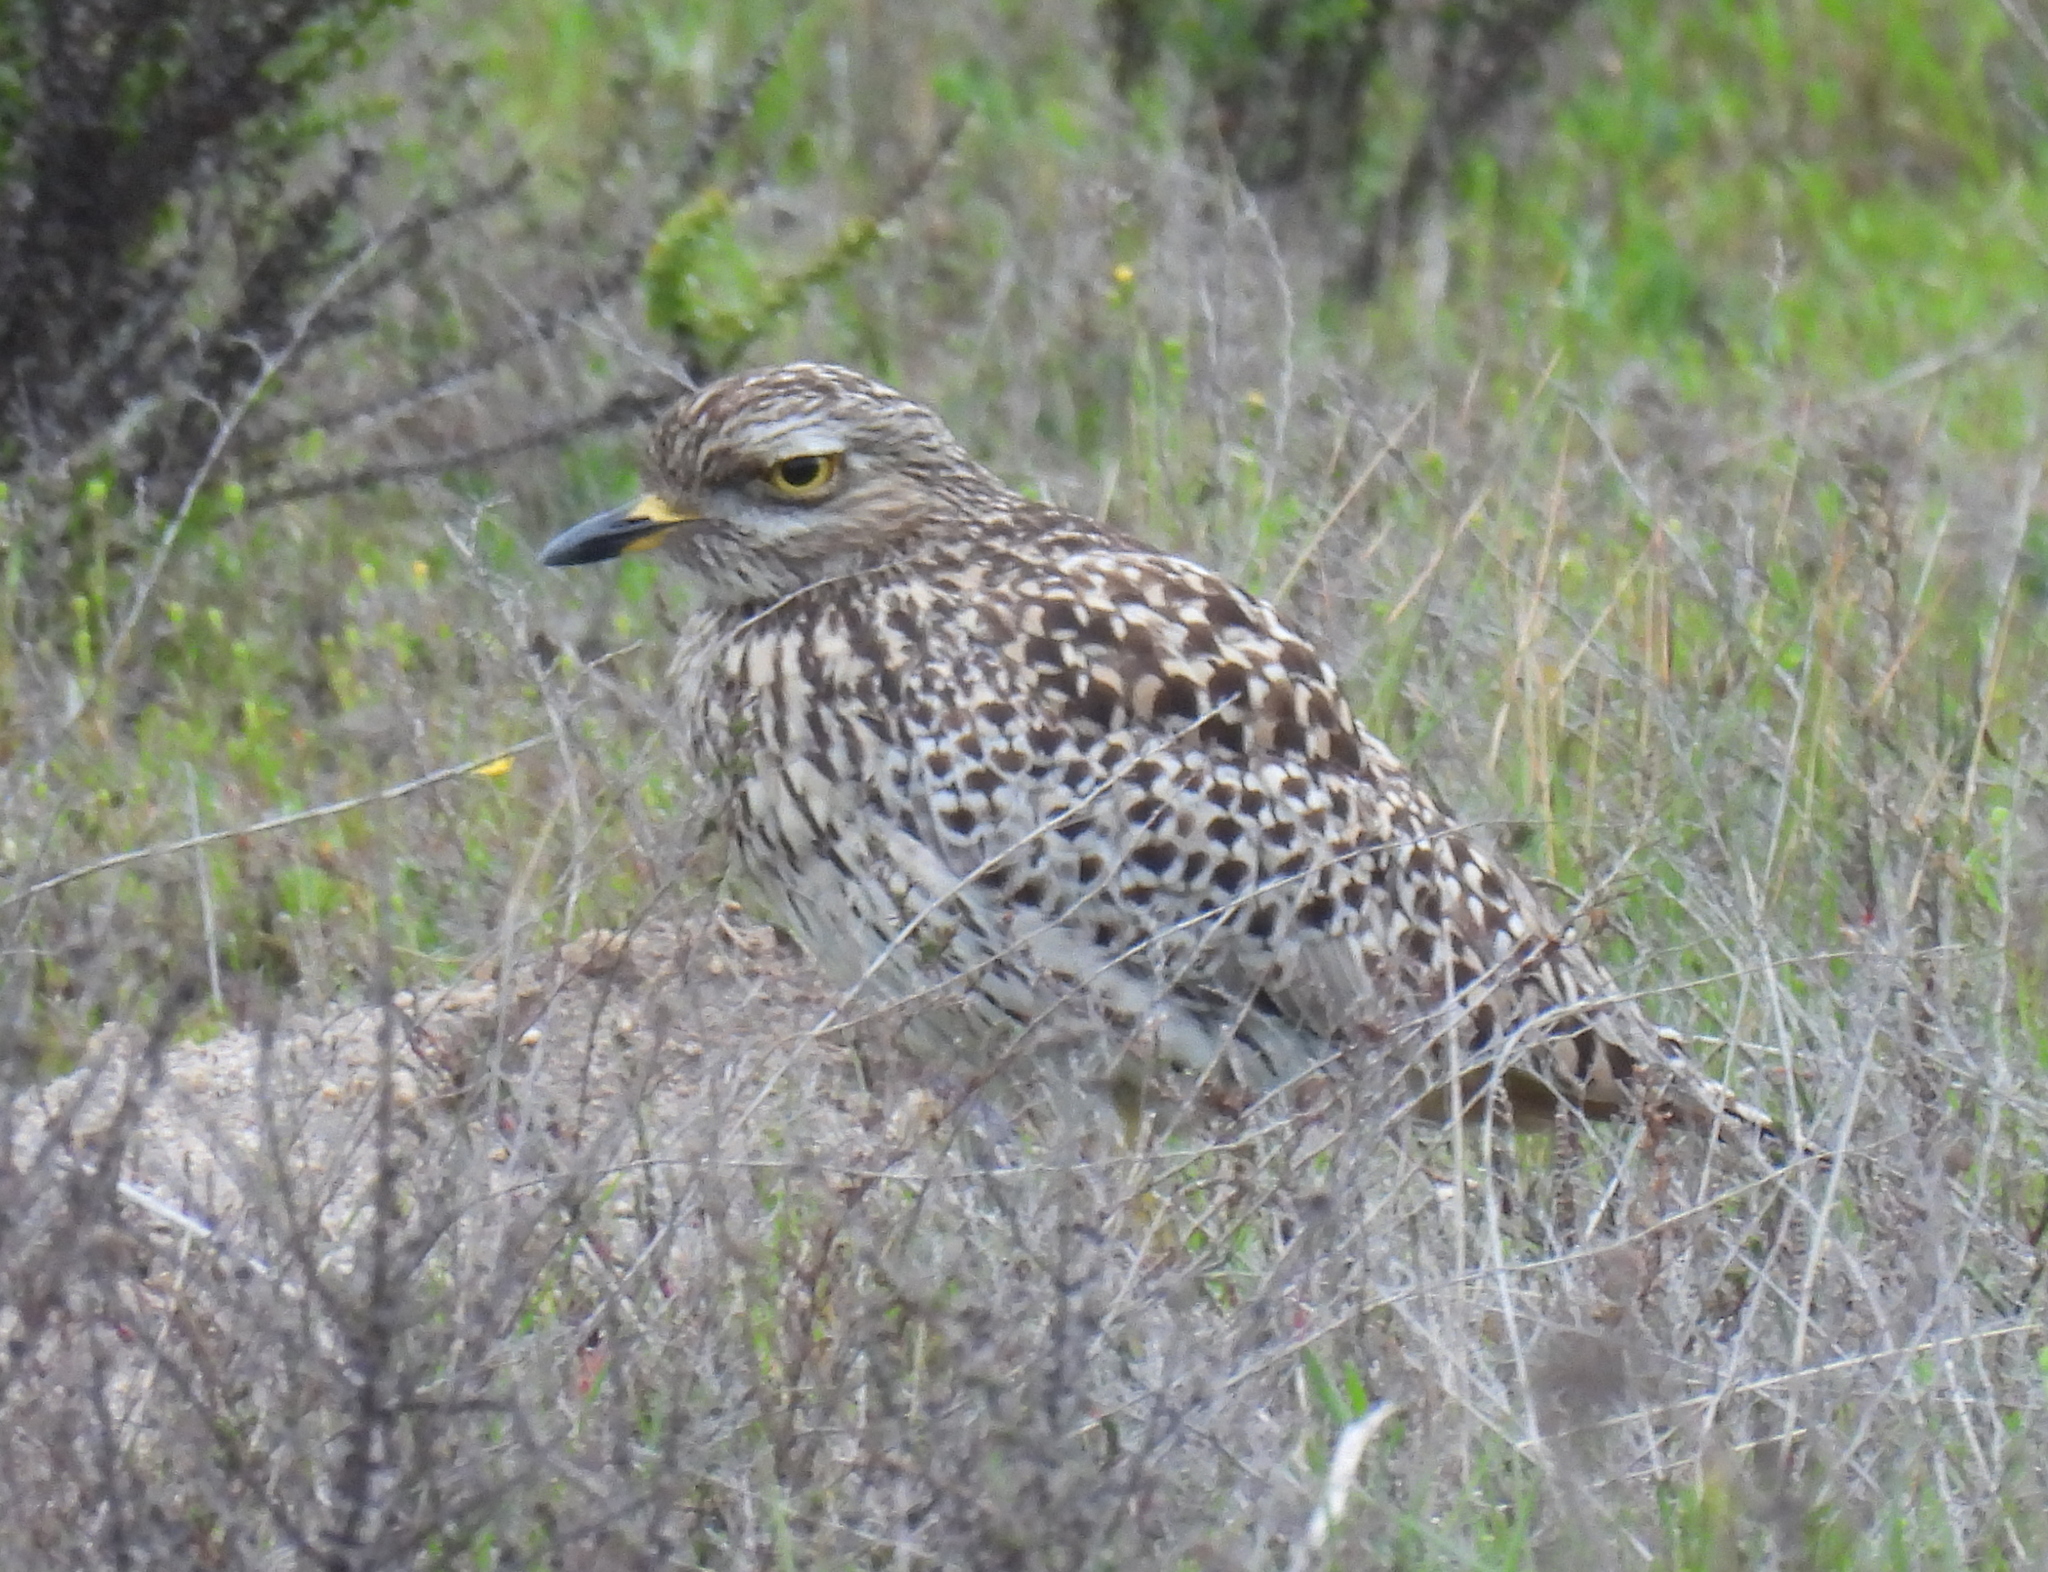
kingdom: Animalia
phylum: Chordata
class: Aves
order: Charadriiformes
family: Burhinidae
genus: Burhinus
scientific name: Burhinus capensis
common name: Spotted thick-knee
